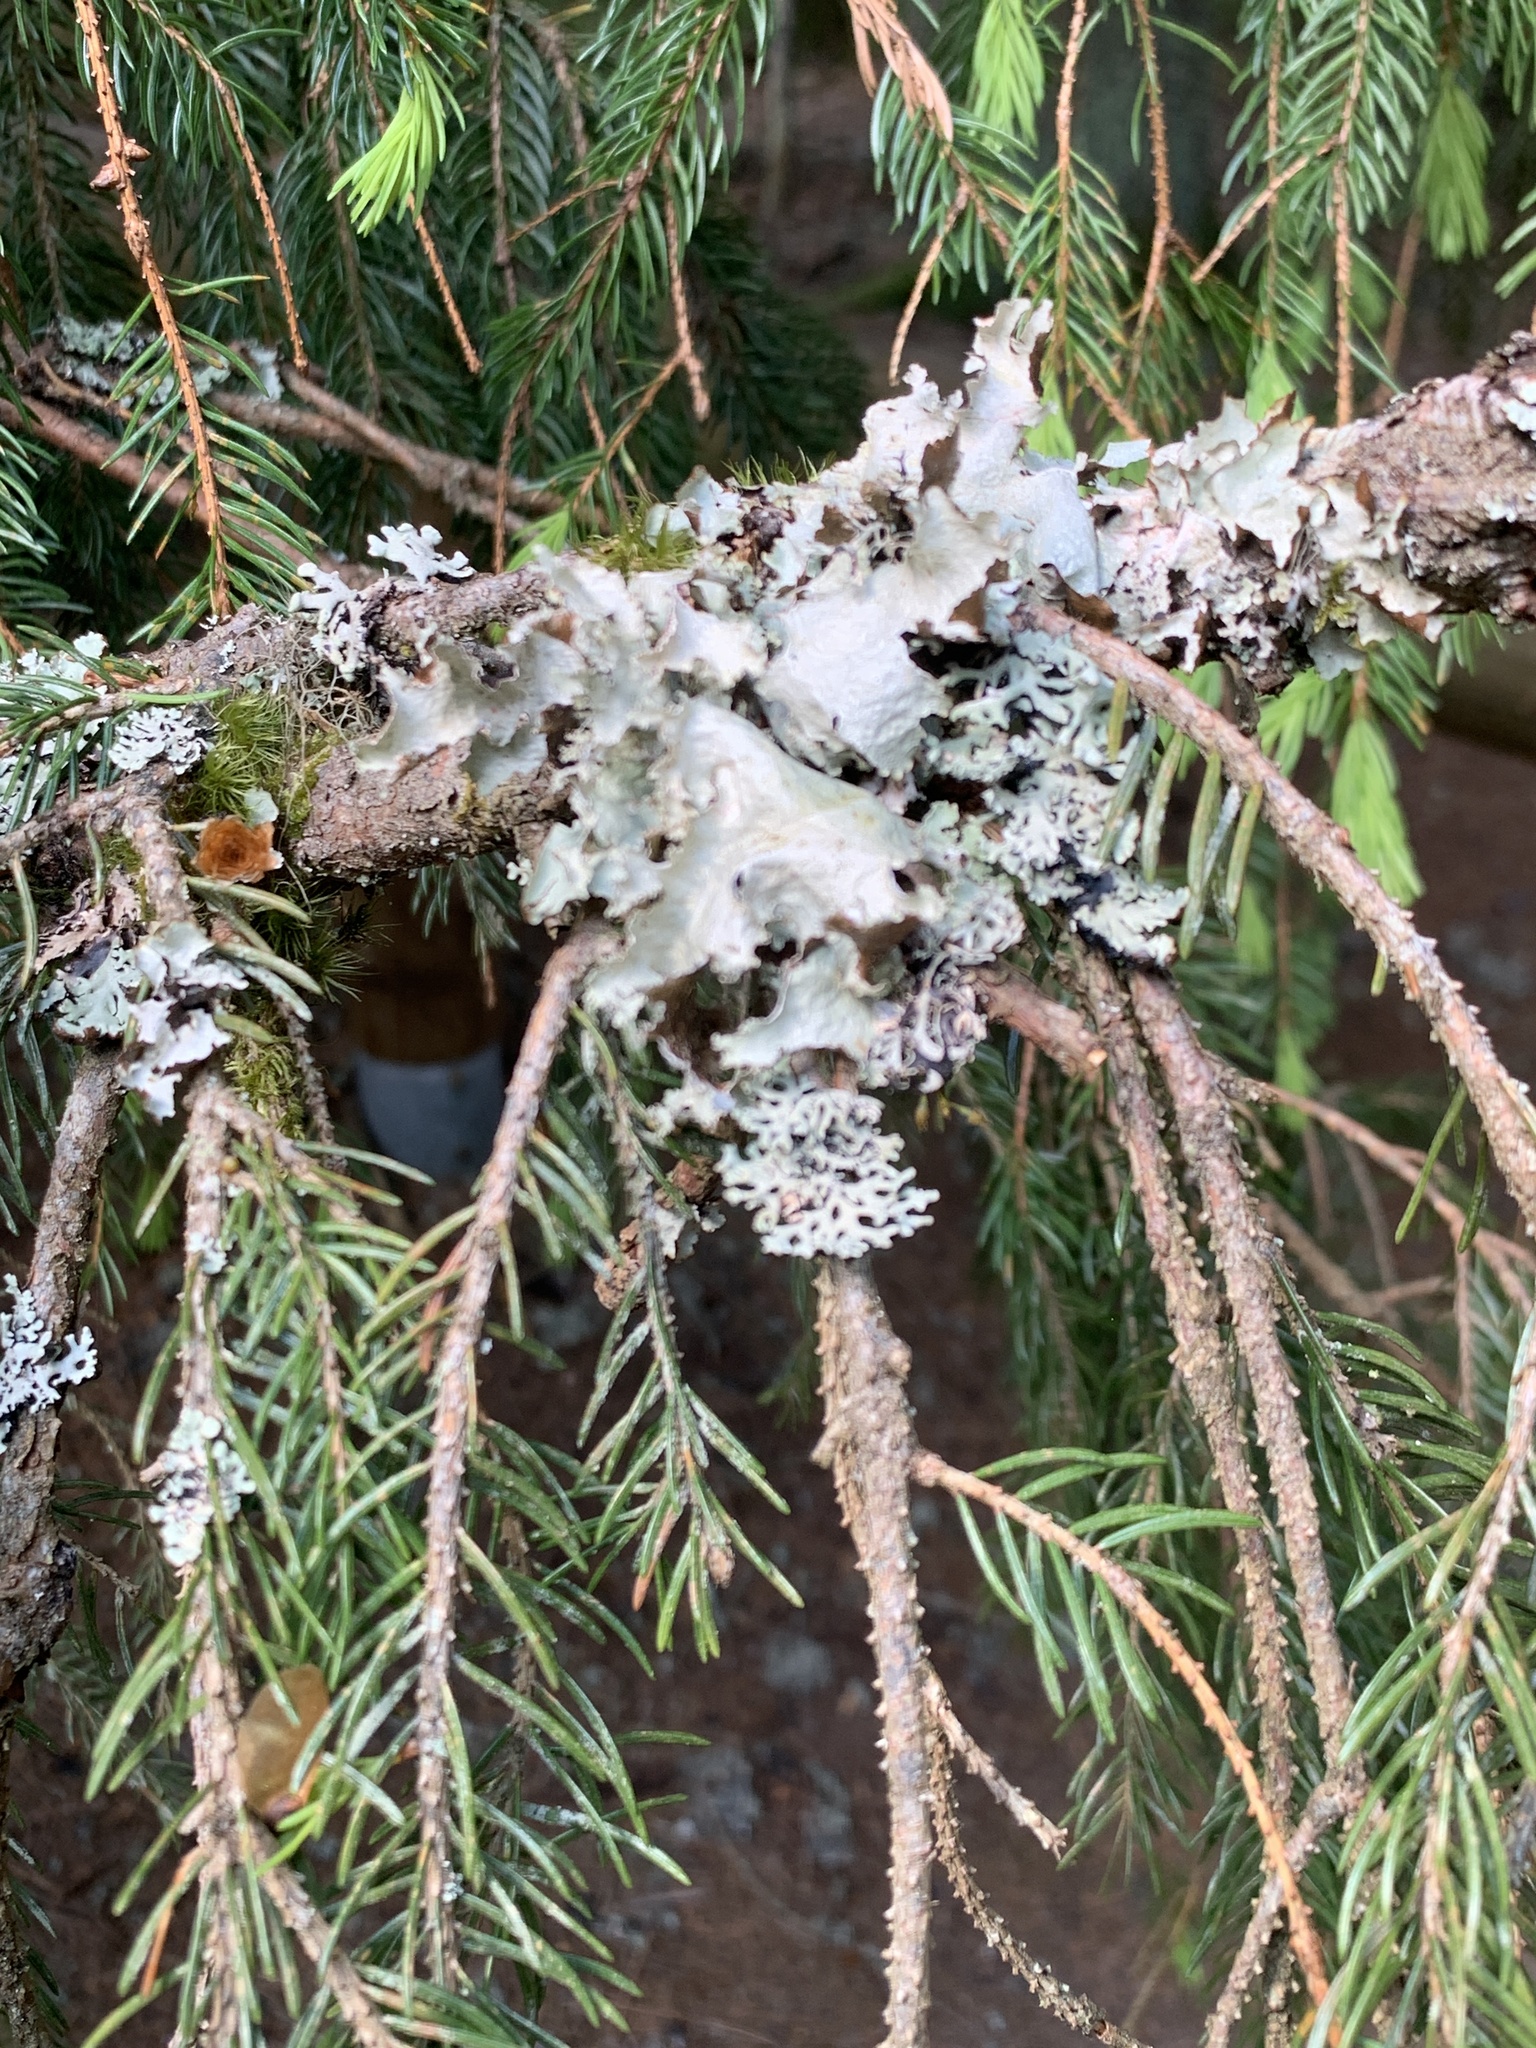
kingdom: Fungi
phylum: Ascomycota
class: Lecanoromycetes
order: Lecanorales
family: Parmeliaceae
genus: Platismatia
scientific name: Platismatia glauca
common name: Varied rag lichen
